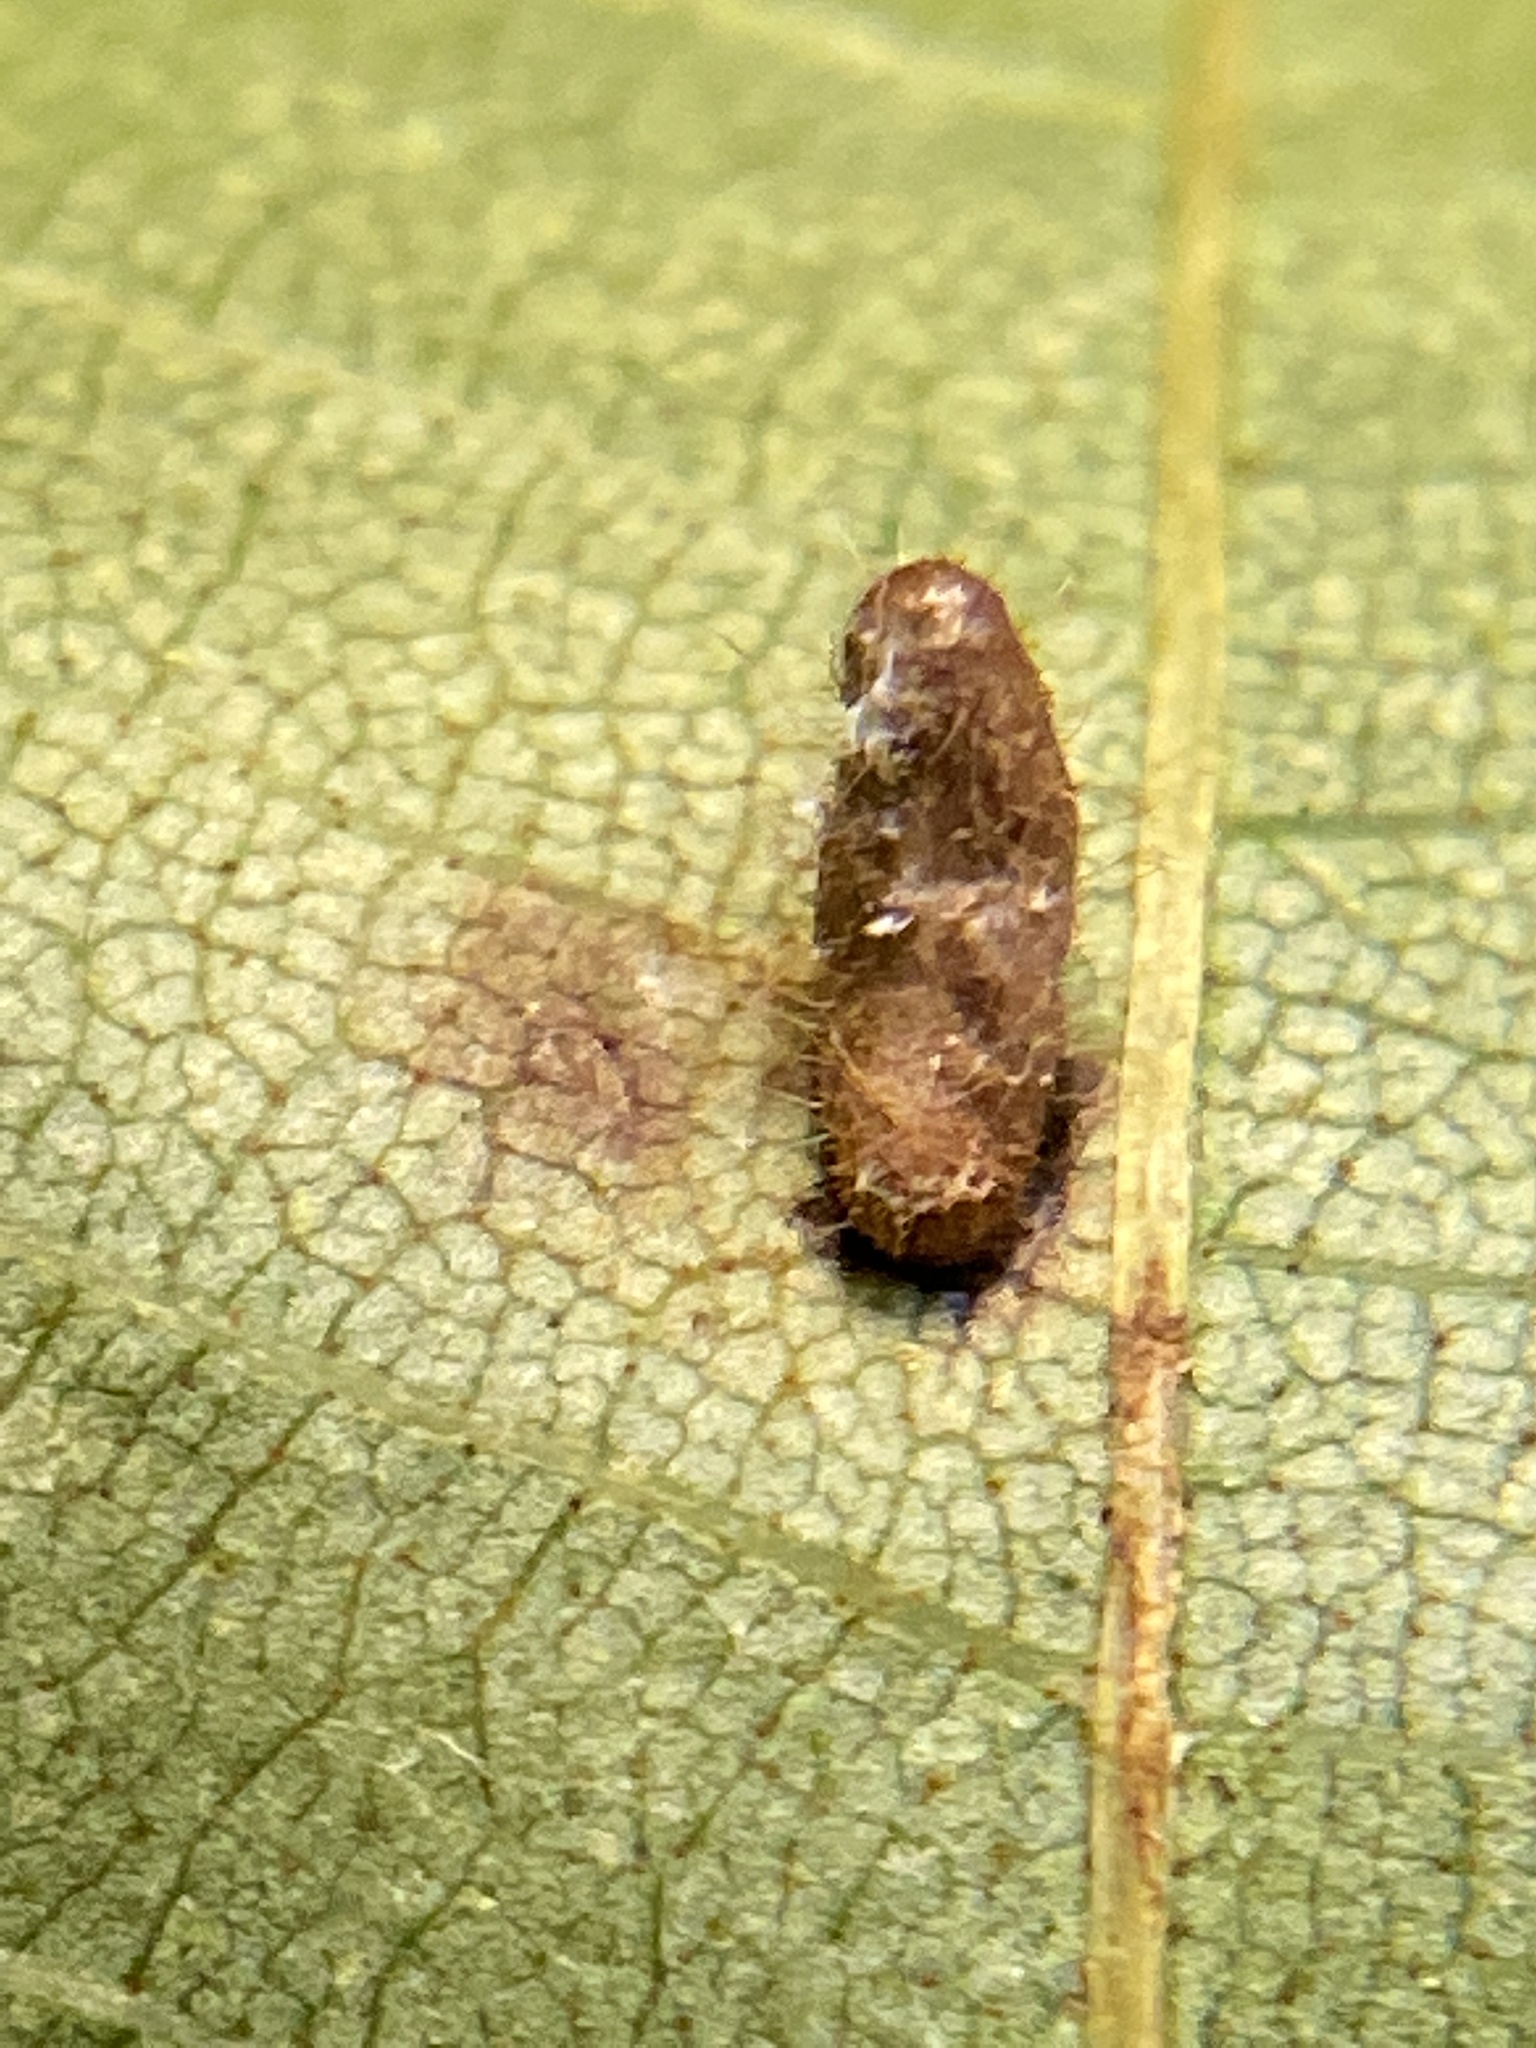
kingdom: Animalia
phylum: Arthropoda
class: Insecta
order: Diptera
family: Cecidomyiidae
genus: Contarinia
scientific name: Contarinia cucumata
